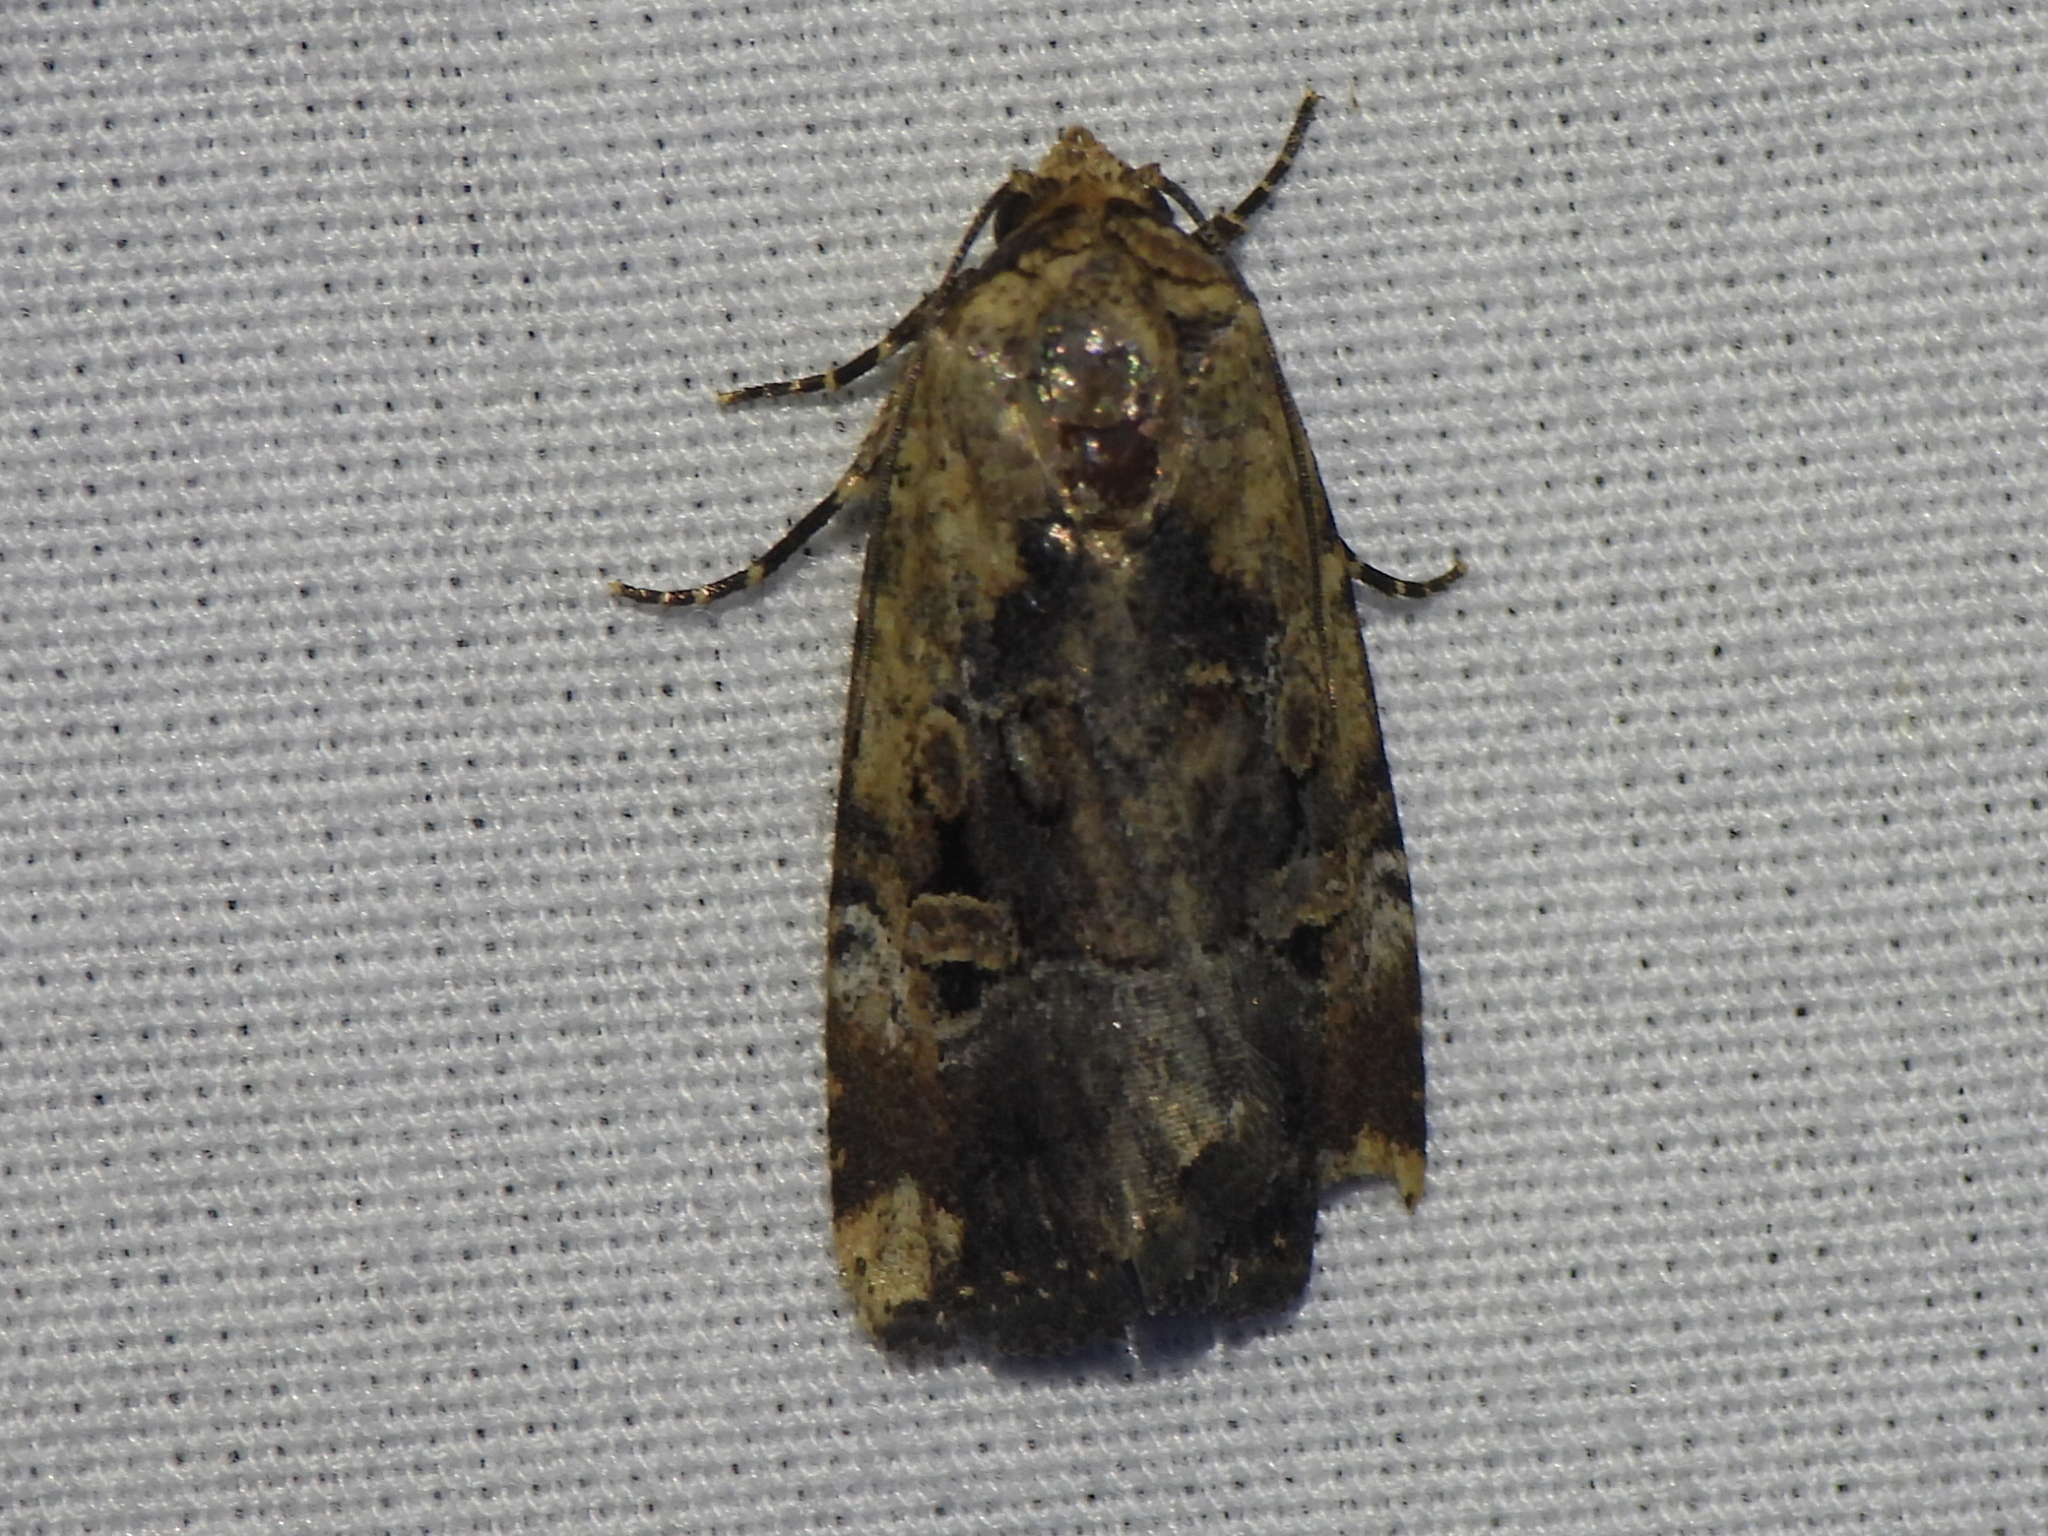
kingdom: Animalia
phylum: Arthropoda
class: Insecta
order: Lepidoptera
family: Noctuidae
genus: Elaphria
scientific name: Elaphria chalcedonia
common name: Chalcedony midget
